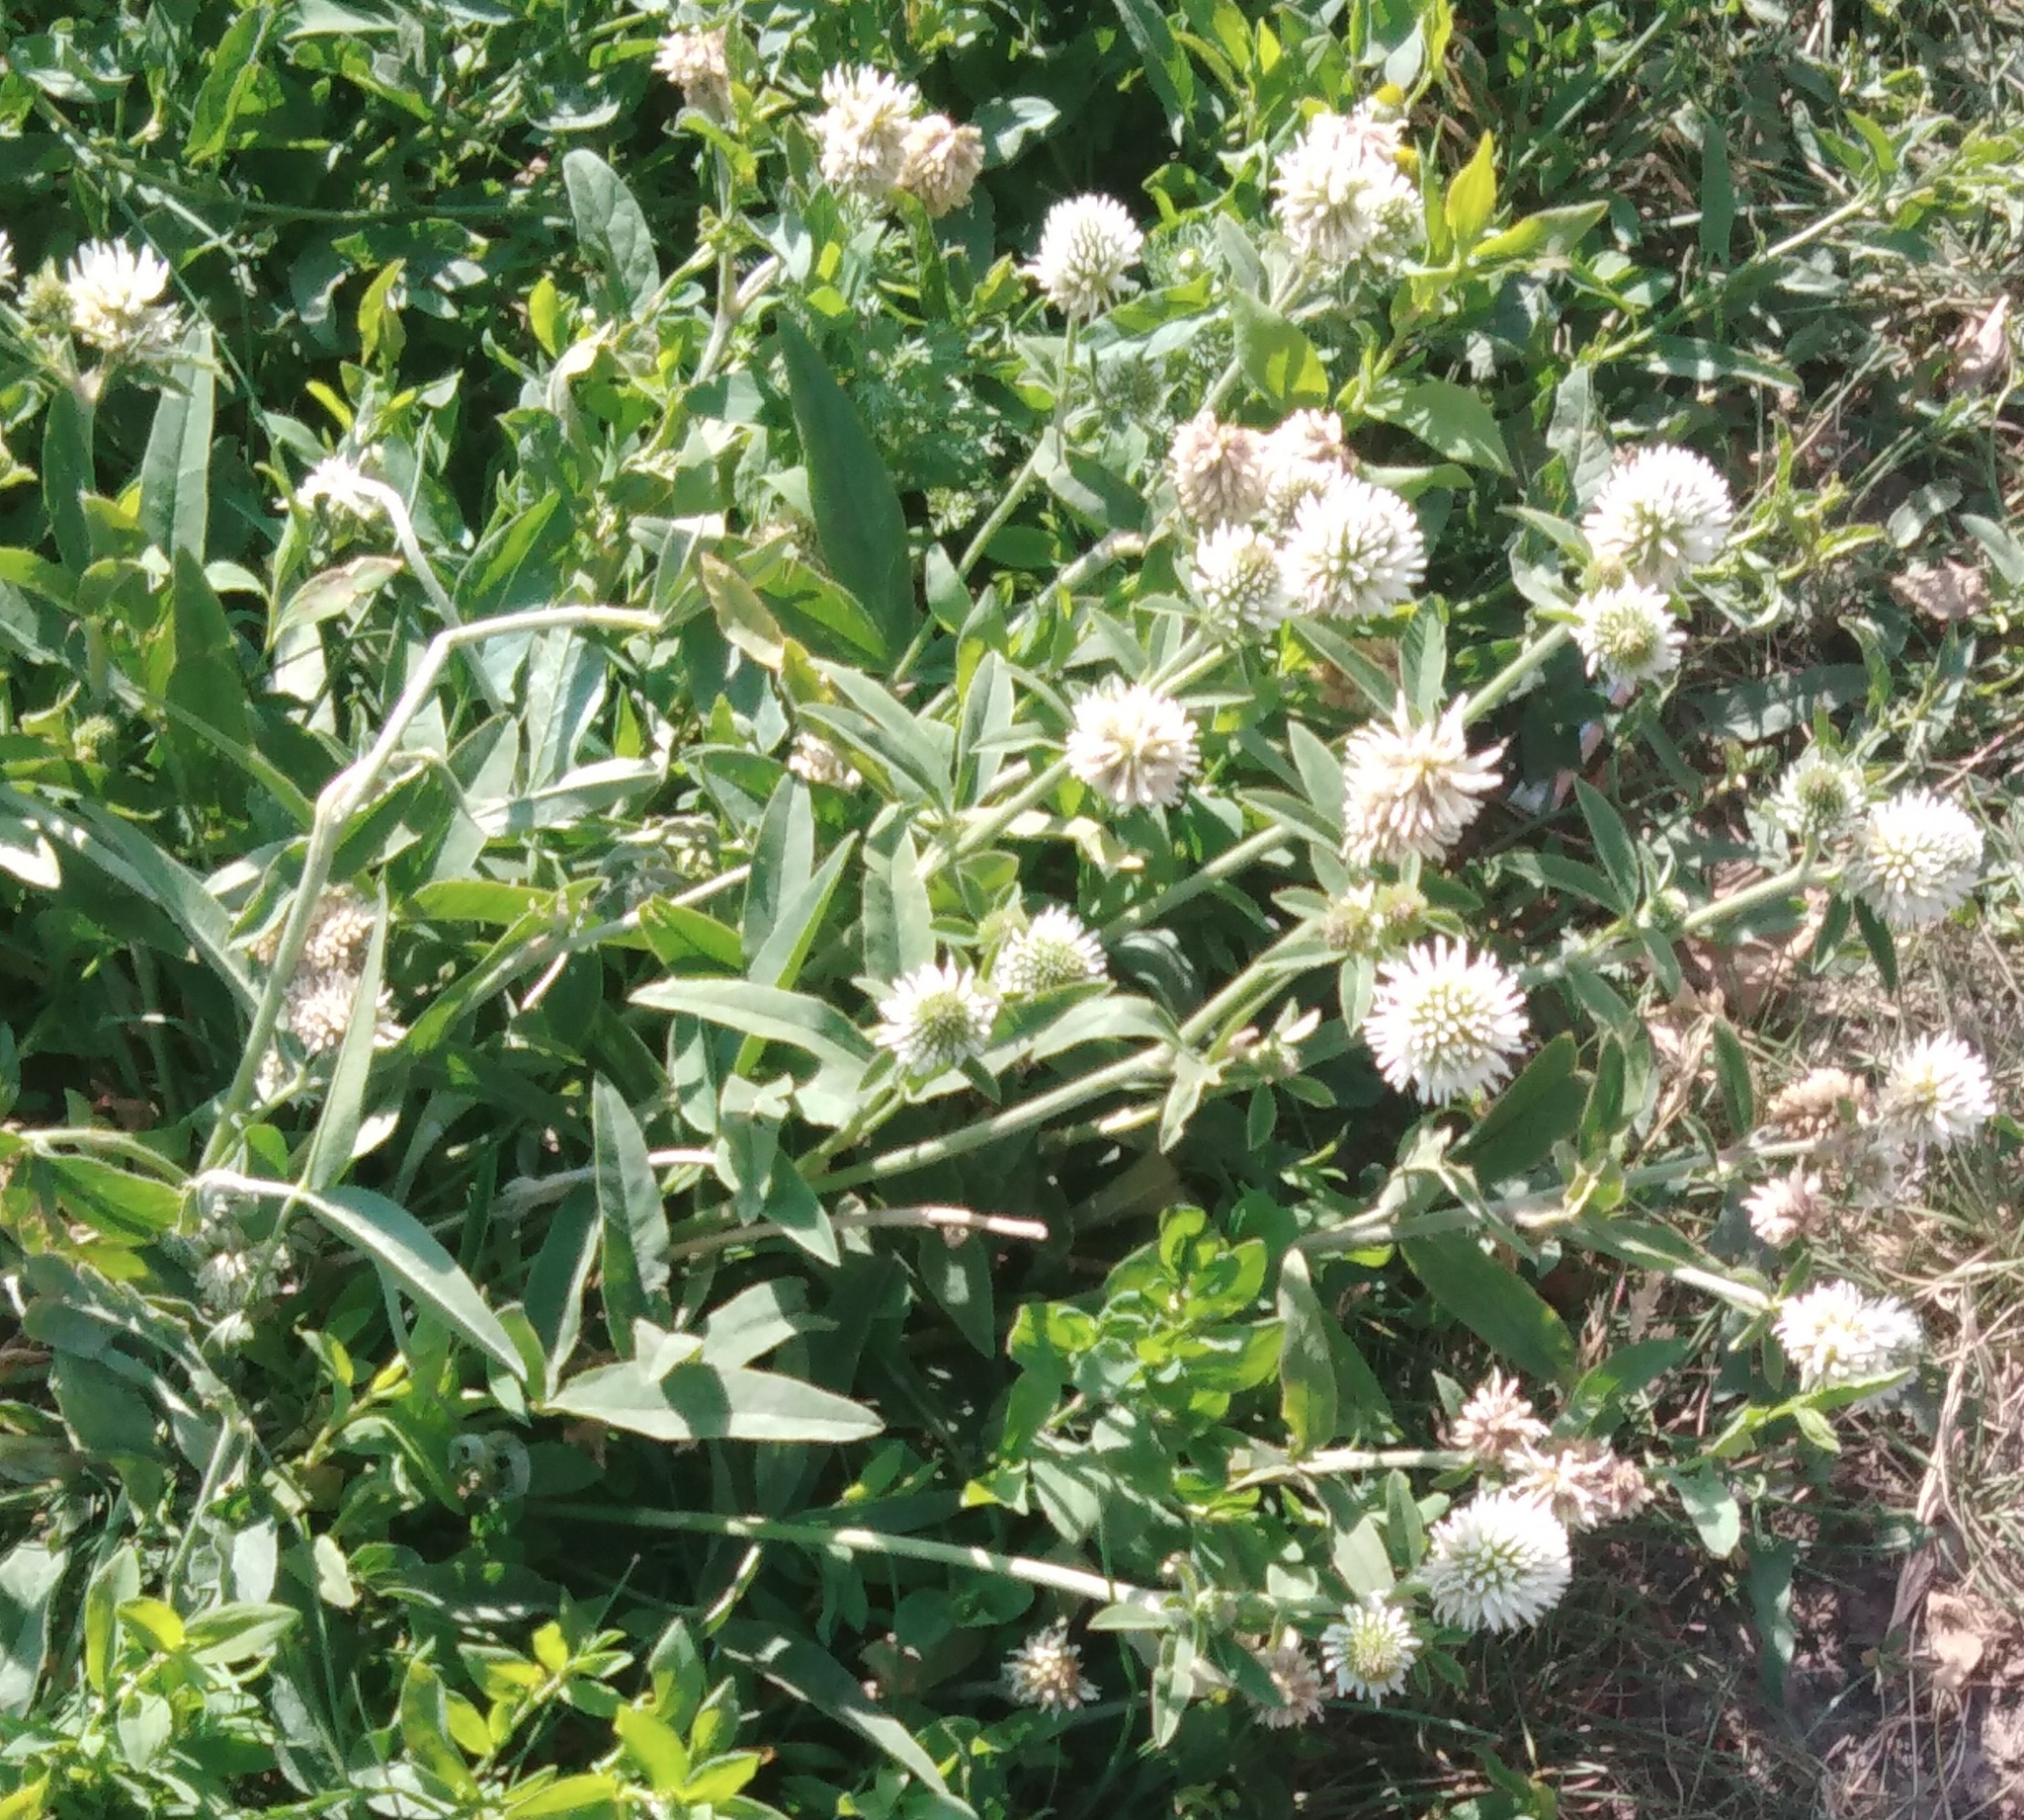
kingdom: Plantae
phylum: Tracheophyta
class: Magnoliopsida
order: Fabales
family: Fabaceae
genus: Trifolium
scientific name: Trifolium montanum
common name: Mountain clover
